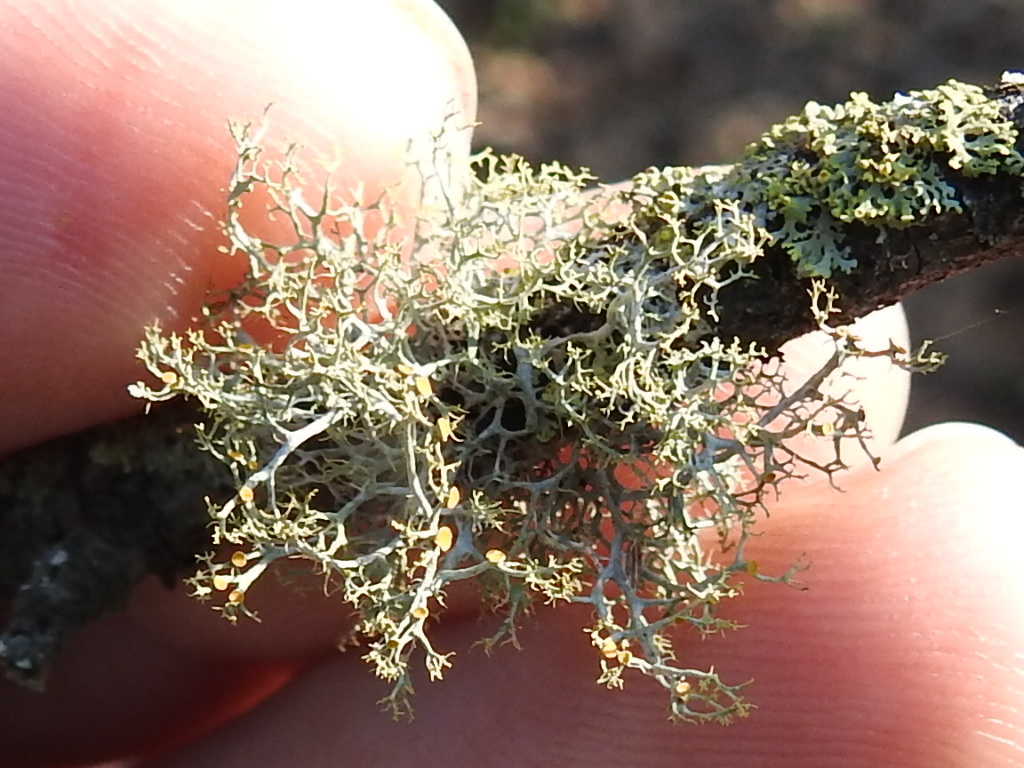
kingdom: Fungi
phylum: Ascomycota
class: Lecanoromycetes
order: Teloschistales
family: Teloschistaceae
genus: Teloschistes
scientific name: Teloschistes exilis
